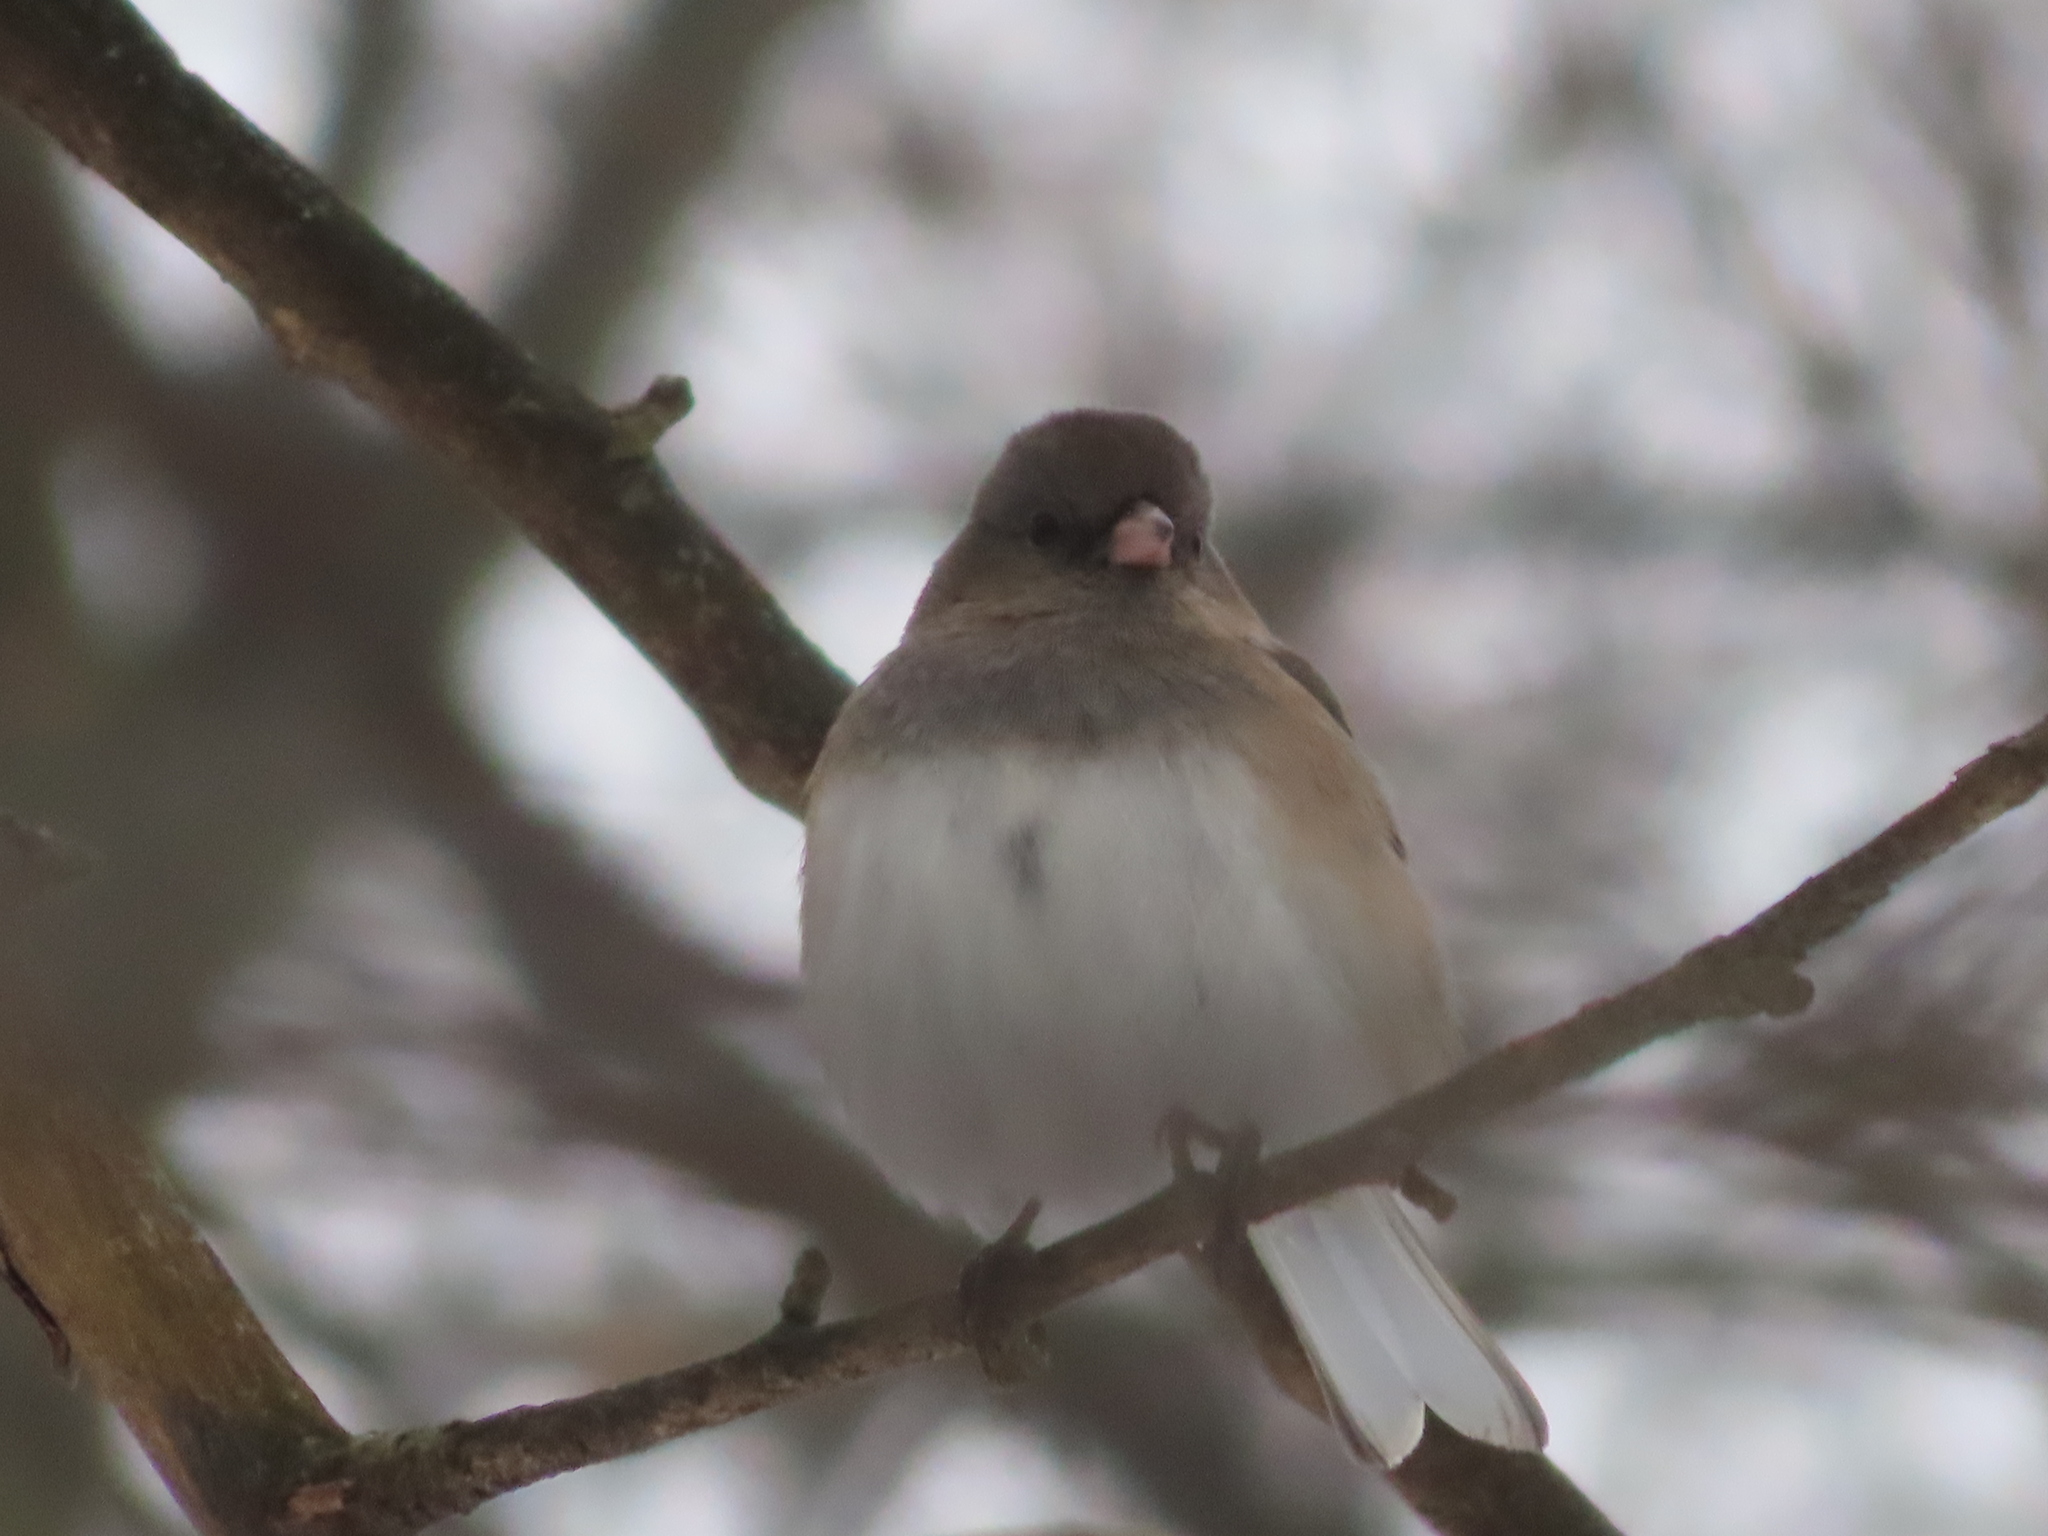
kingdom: Animalia
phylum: Chordata
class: Aves
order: Passeriformes
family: Passerellidae
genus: Junco
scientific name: Junco hyemalis
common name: Dark-eyed junco
